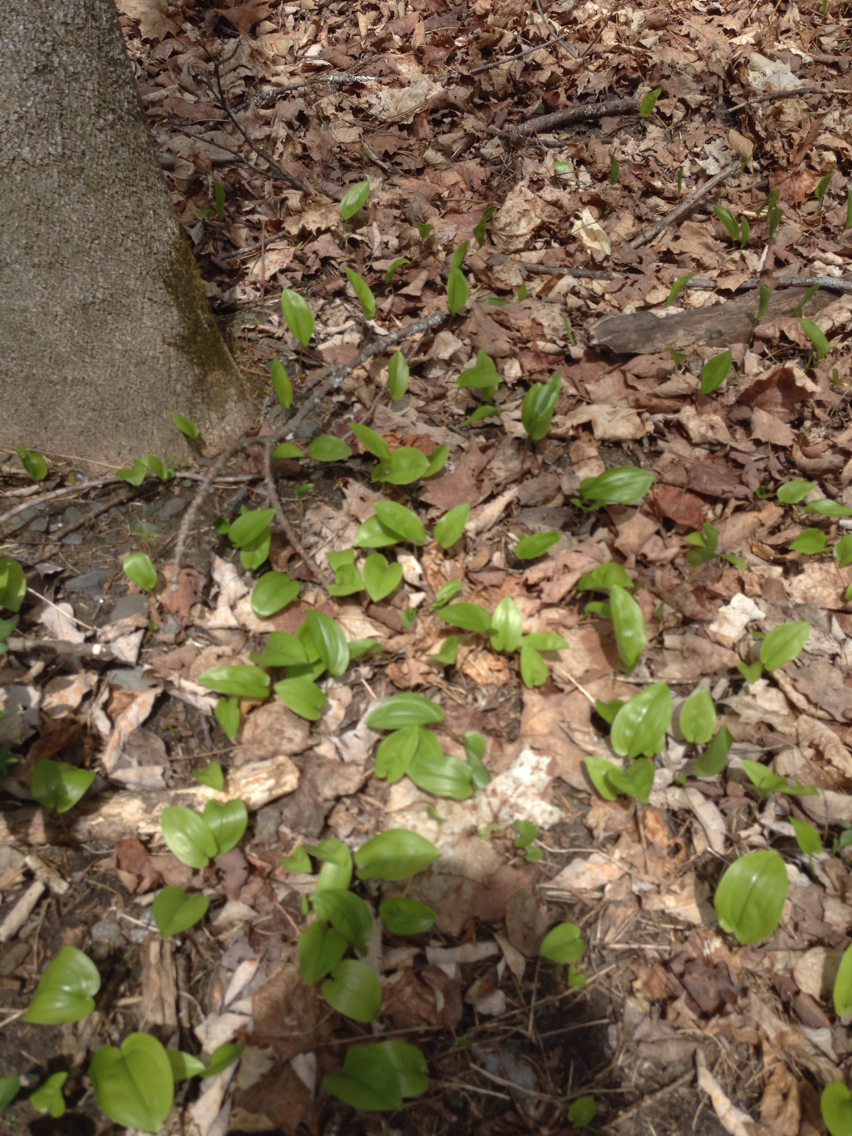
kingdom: Plantae
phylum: Tracheophyta
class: Liliopsida
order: Asparagales
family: Asparagaceae
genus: Maianthemum
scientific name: Maianthemum canadense
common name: False lily-of-the-valley
